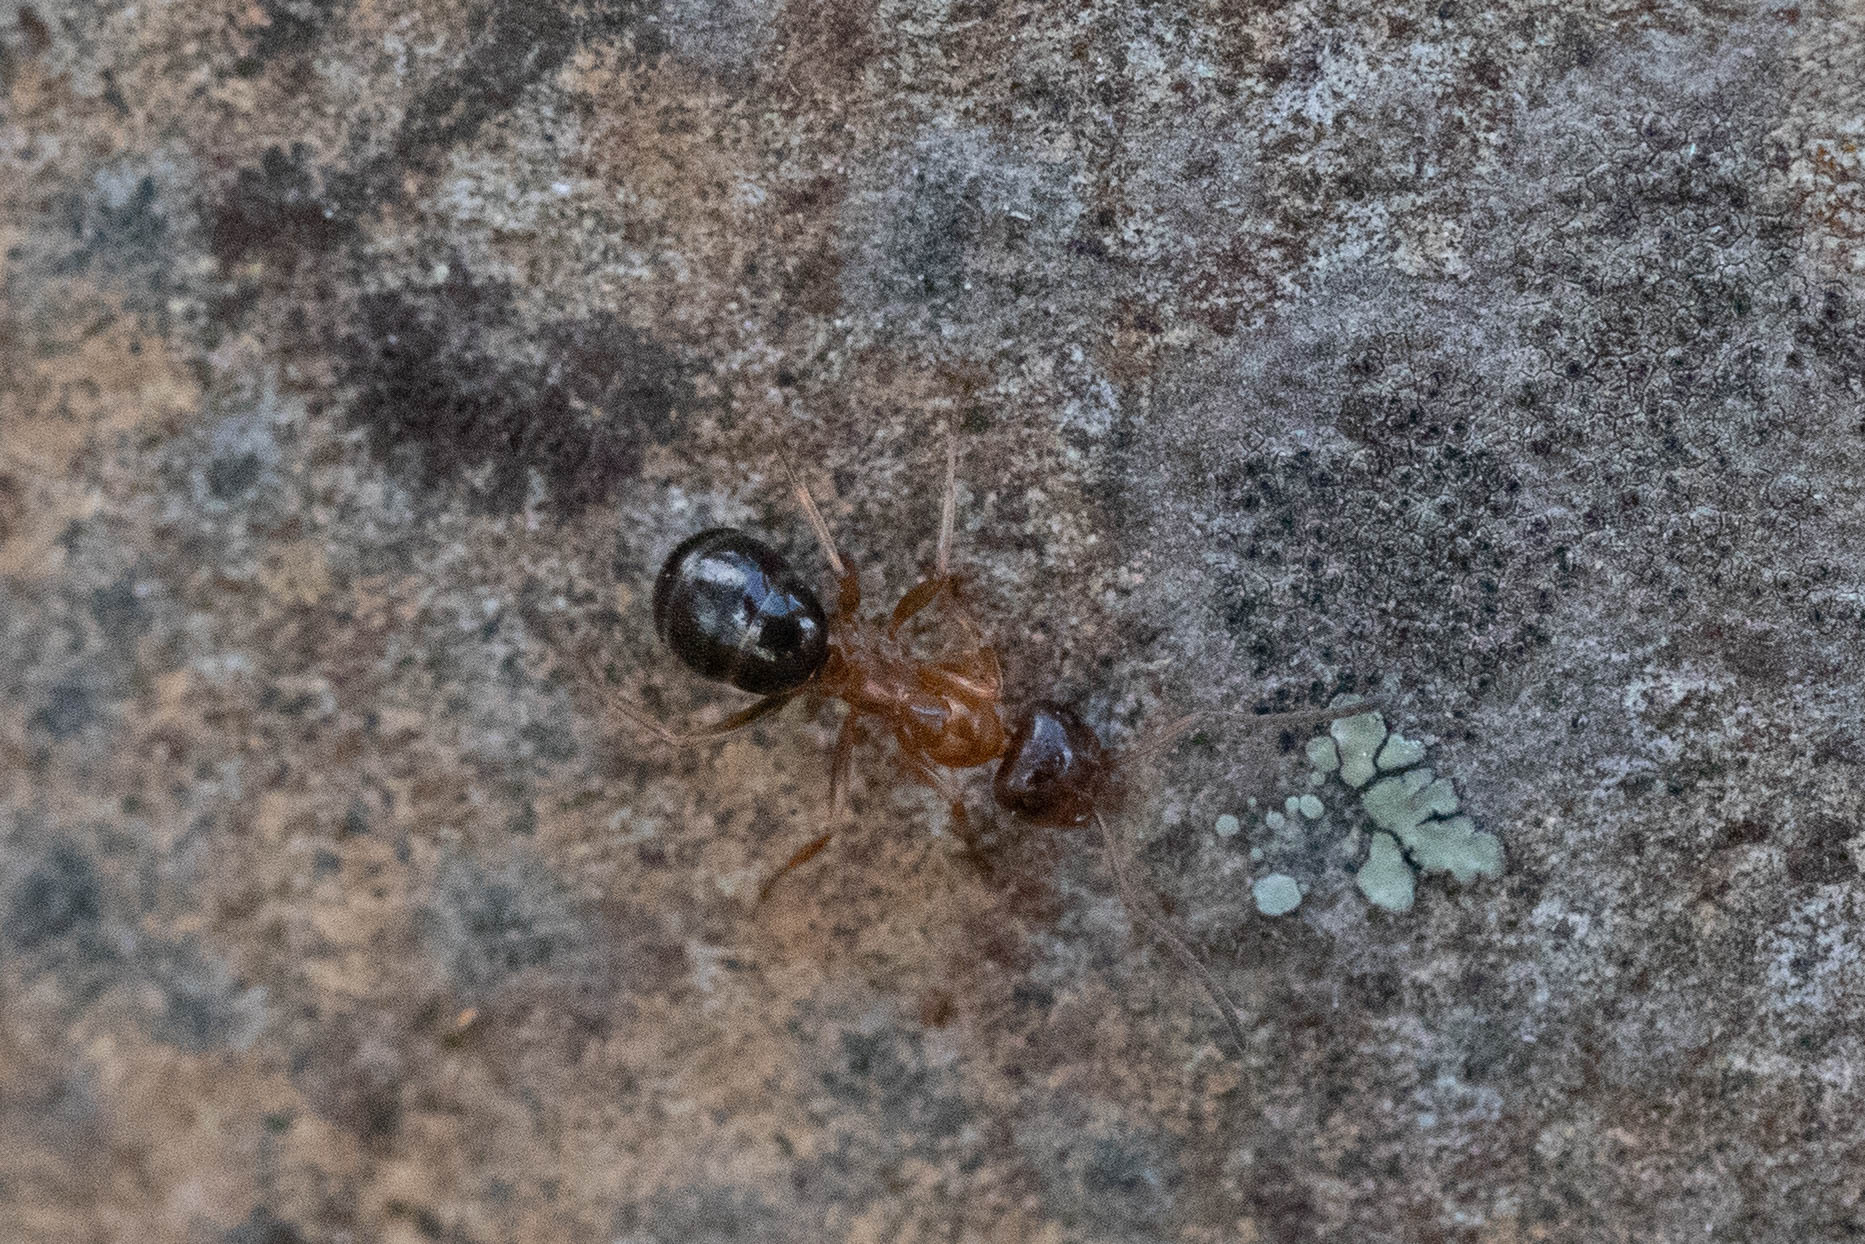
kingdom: Animalia
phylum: Arthropoda
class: Insecta
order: Hymenoptera
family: Formicidae
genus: Formica
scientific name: Formica subpolita
